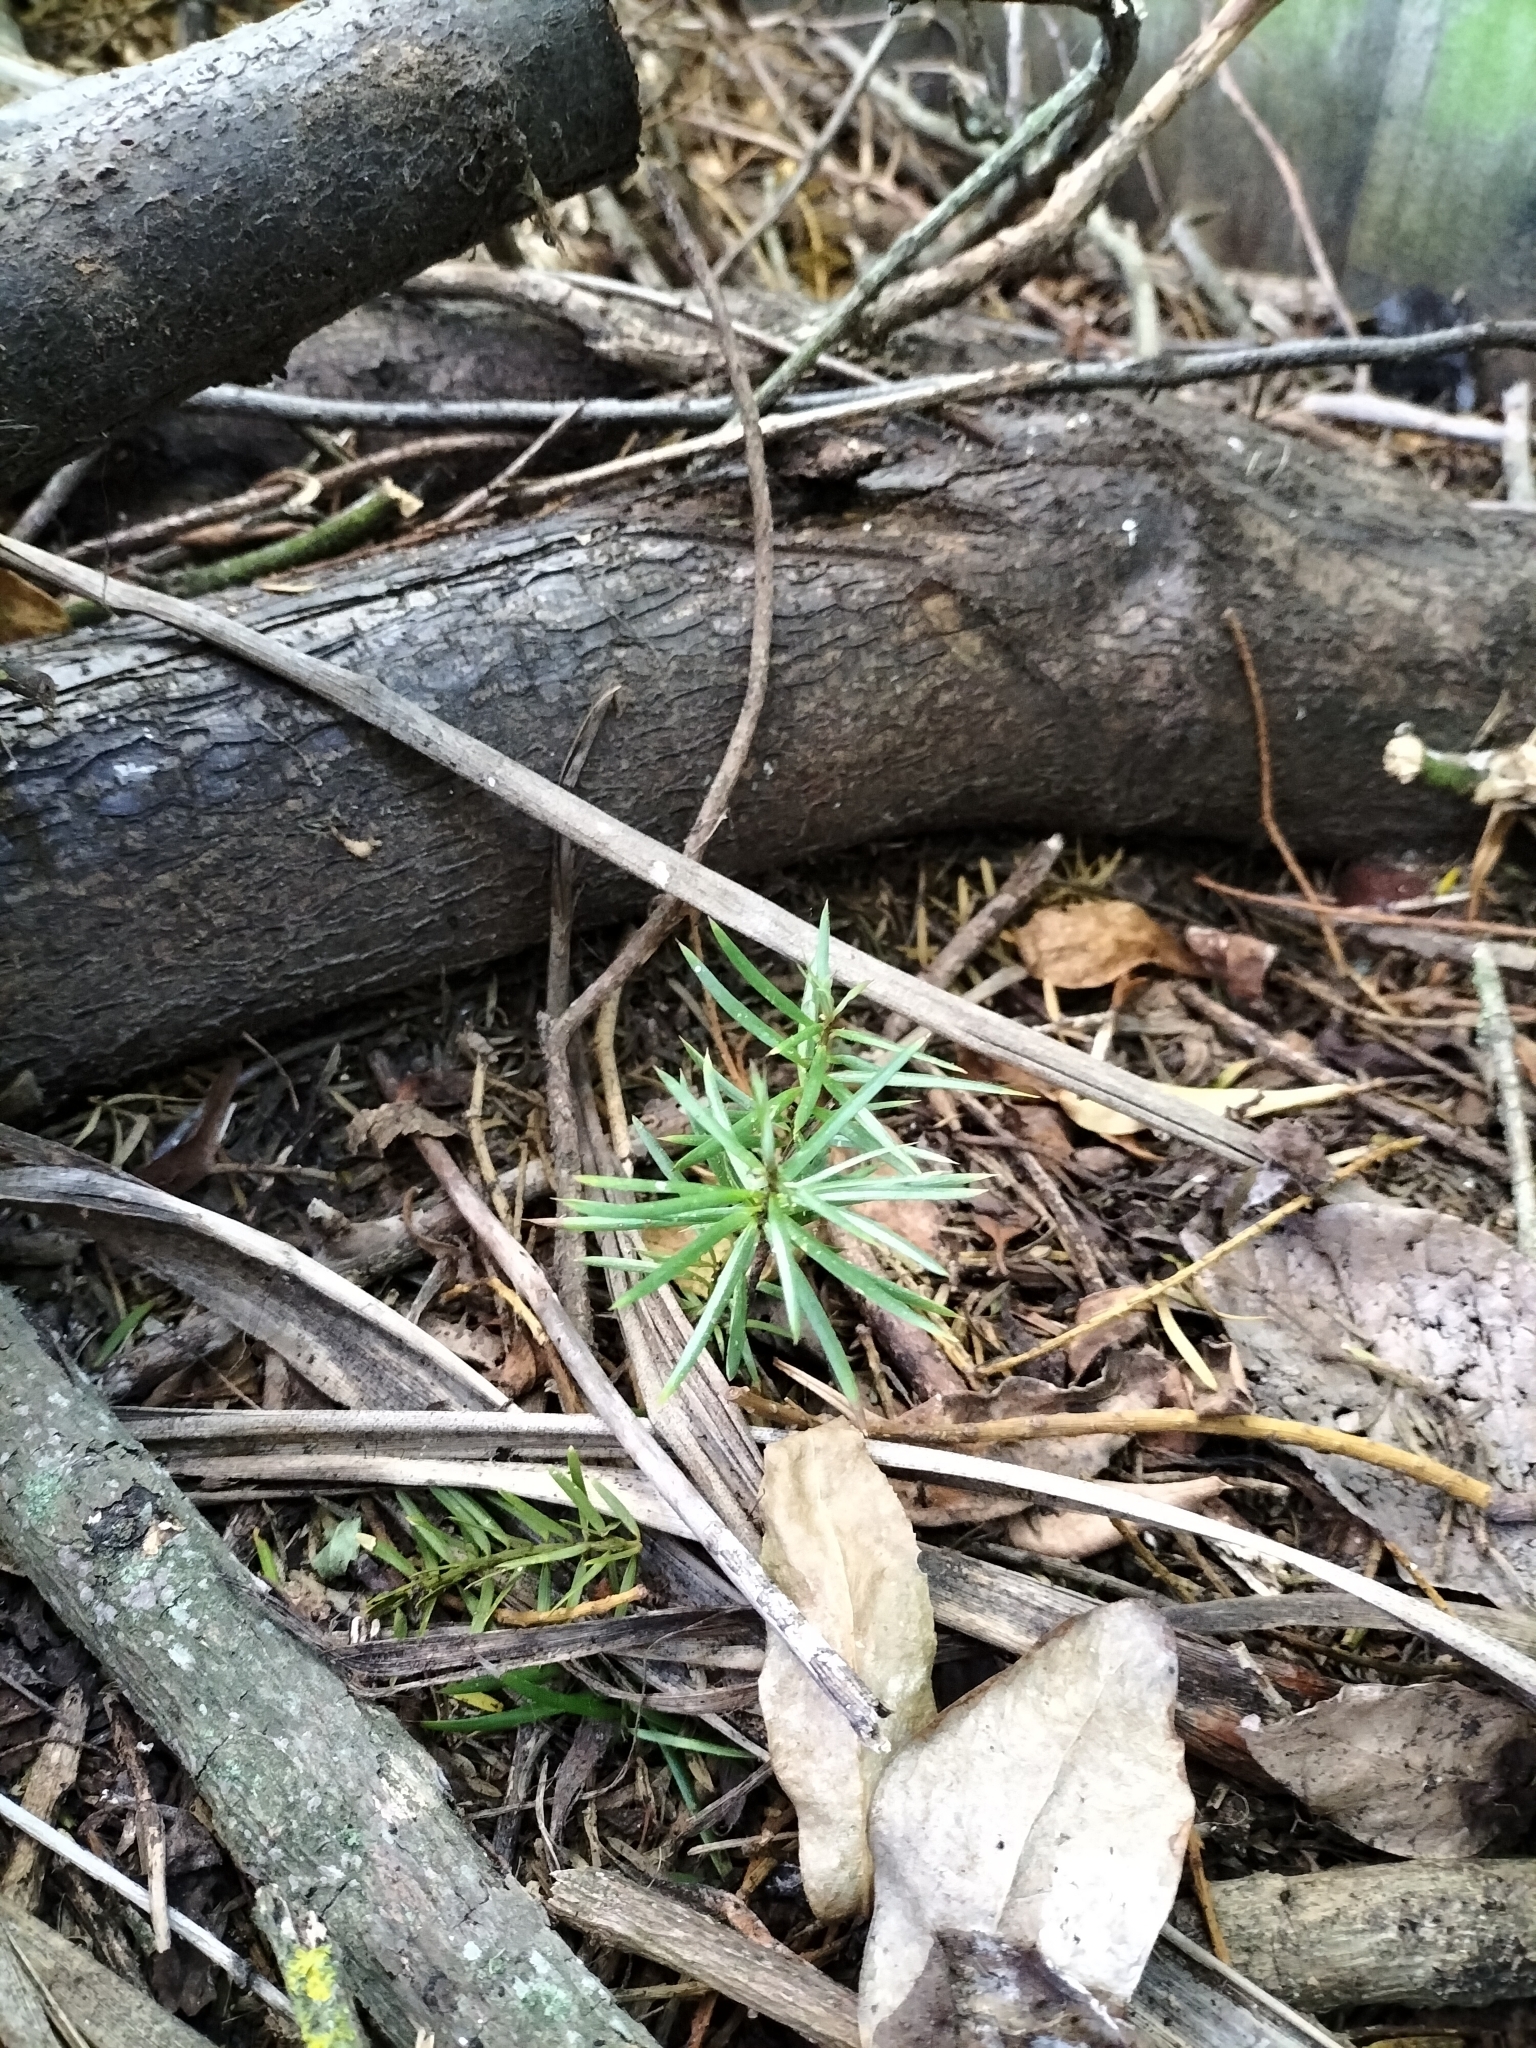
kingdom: Plantae
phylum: Tracheophyta
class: Pinopsida
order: Pinales
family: Podocarpaceae
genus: Podocarpus
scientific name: Podocarpus totara
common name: Totara
